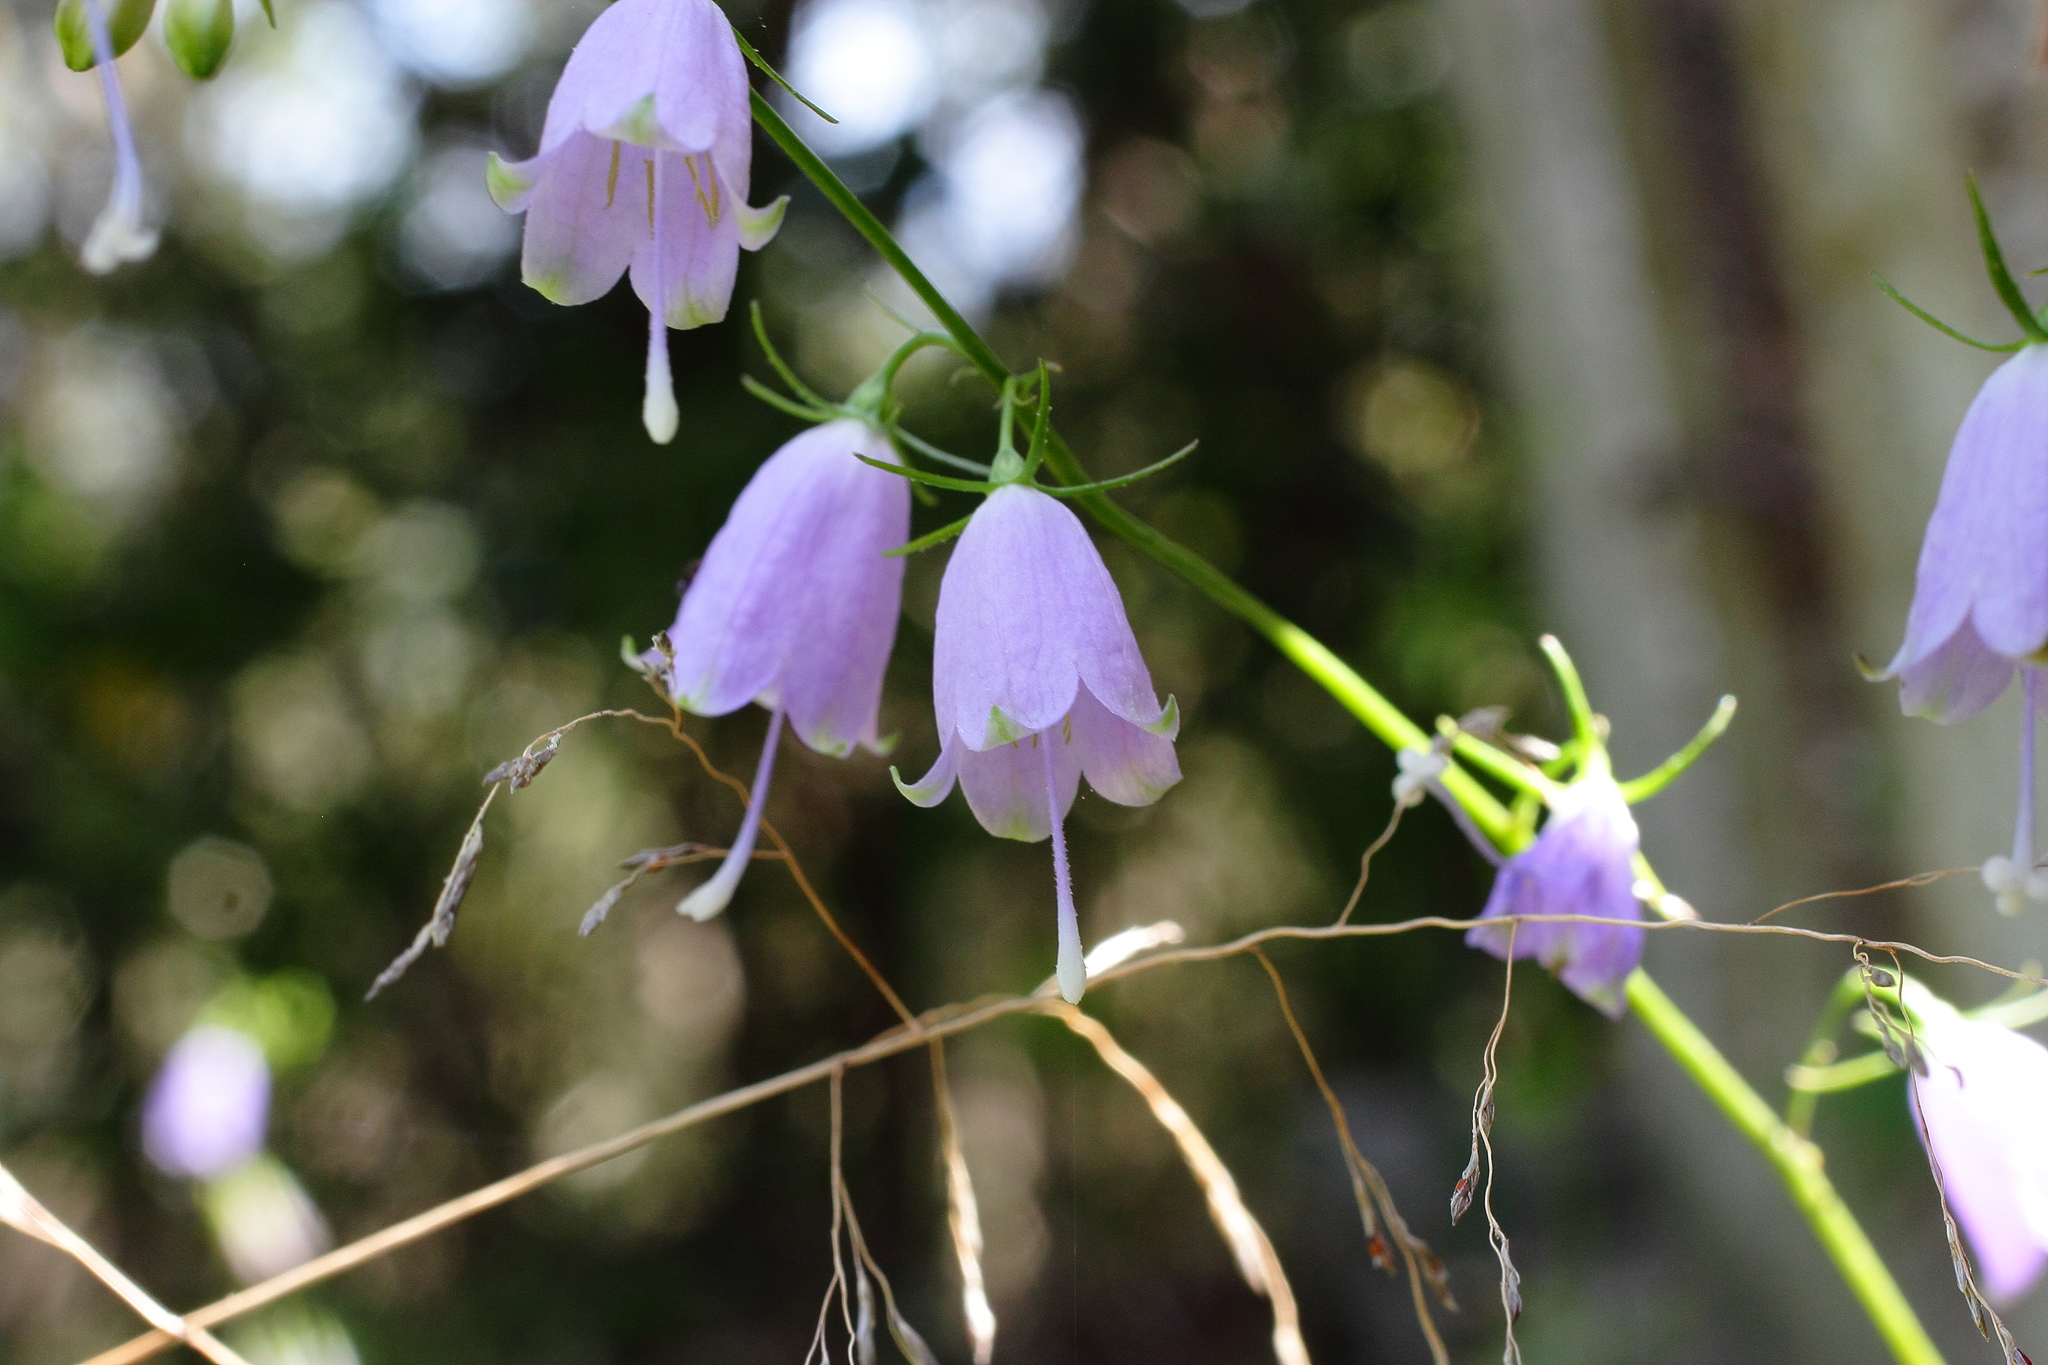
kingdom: Plantae
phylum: Tracheophyta
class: Magnoliopsida
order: Asterales
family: Campanulaceae
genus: Adenophora
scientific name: Adenophora triphylla
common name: Giant-bellflower
